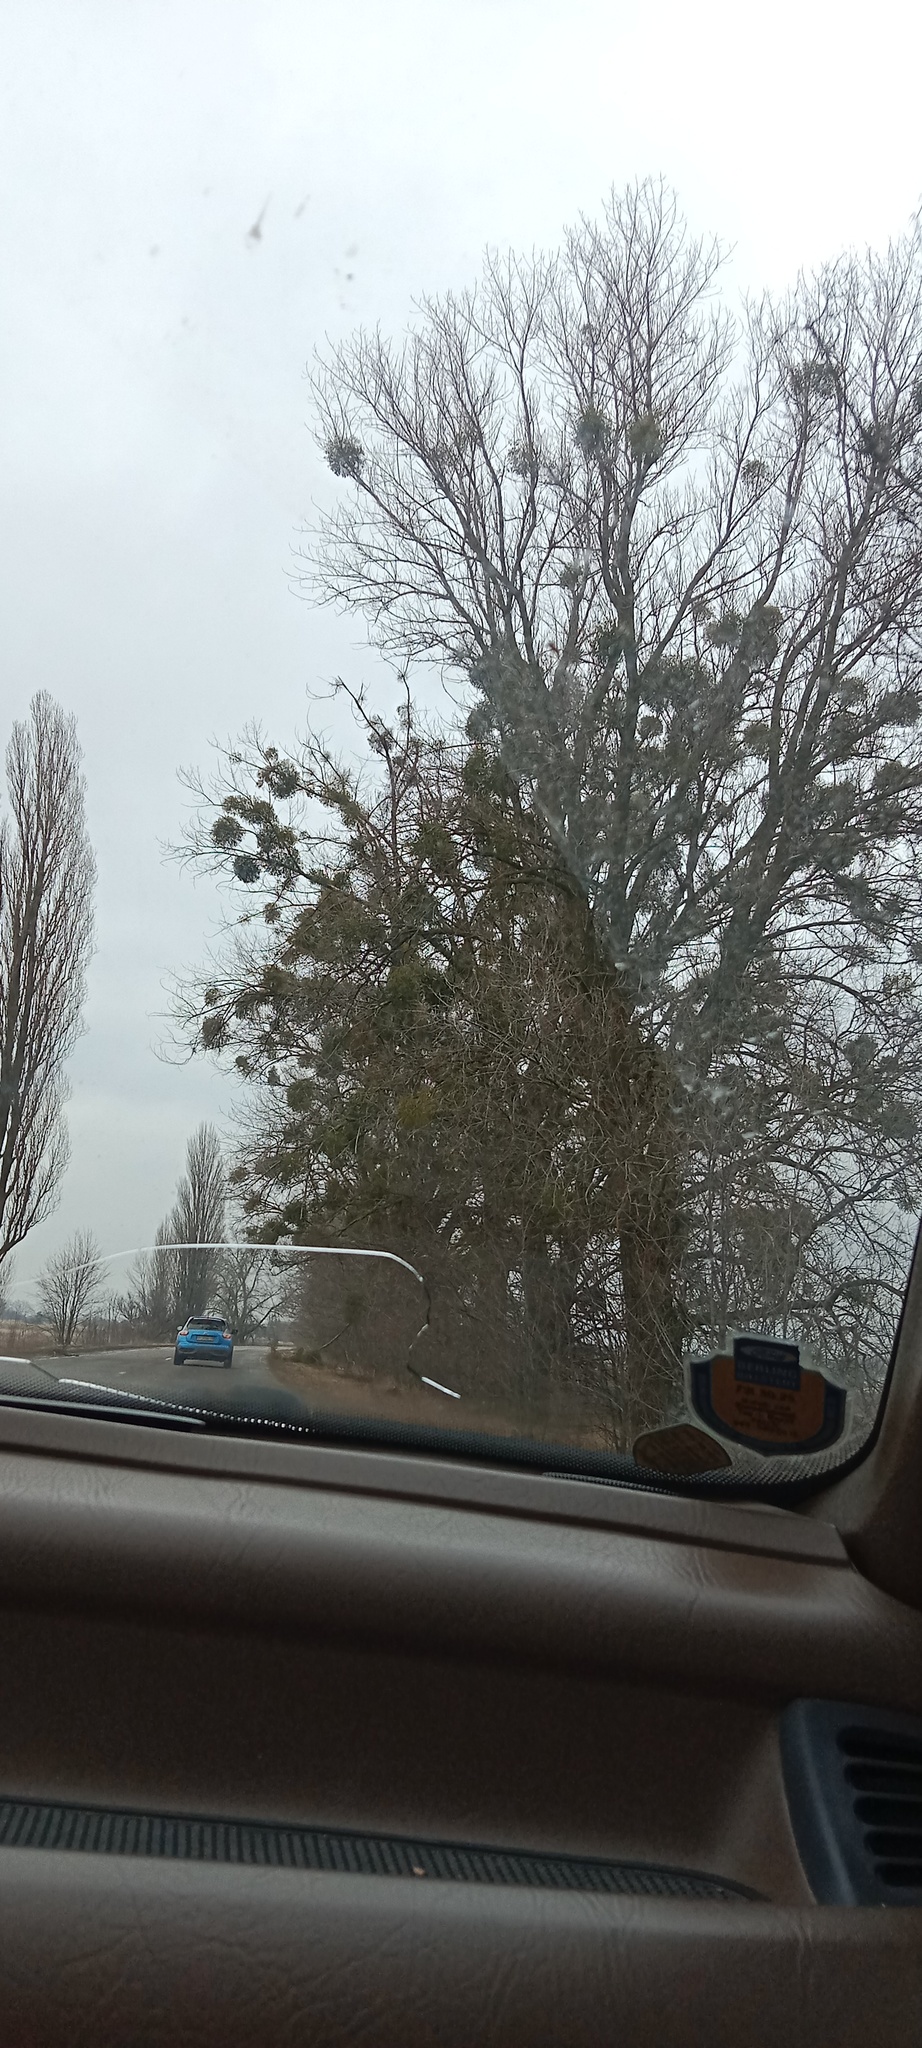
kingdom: Plantae
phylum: Tracheophyta
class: Magnoliopsida
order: Santalales
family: Viscaceae
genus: Viscum
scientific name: Viscum album
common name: Mistletoe
